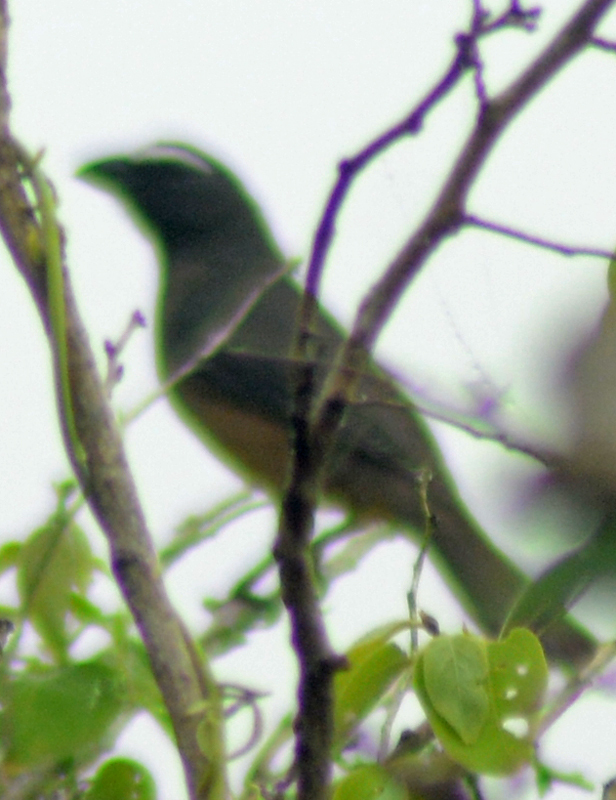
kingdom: Animalia
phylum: Chordata
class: Aves
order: Passeriformes
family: Thraupidae
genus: Saltator
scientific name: Saltator grandis
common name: Cinnamon-bellied saltator
